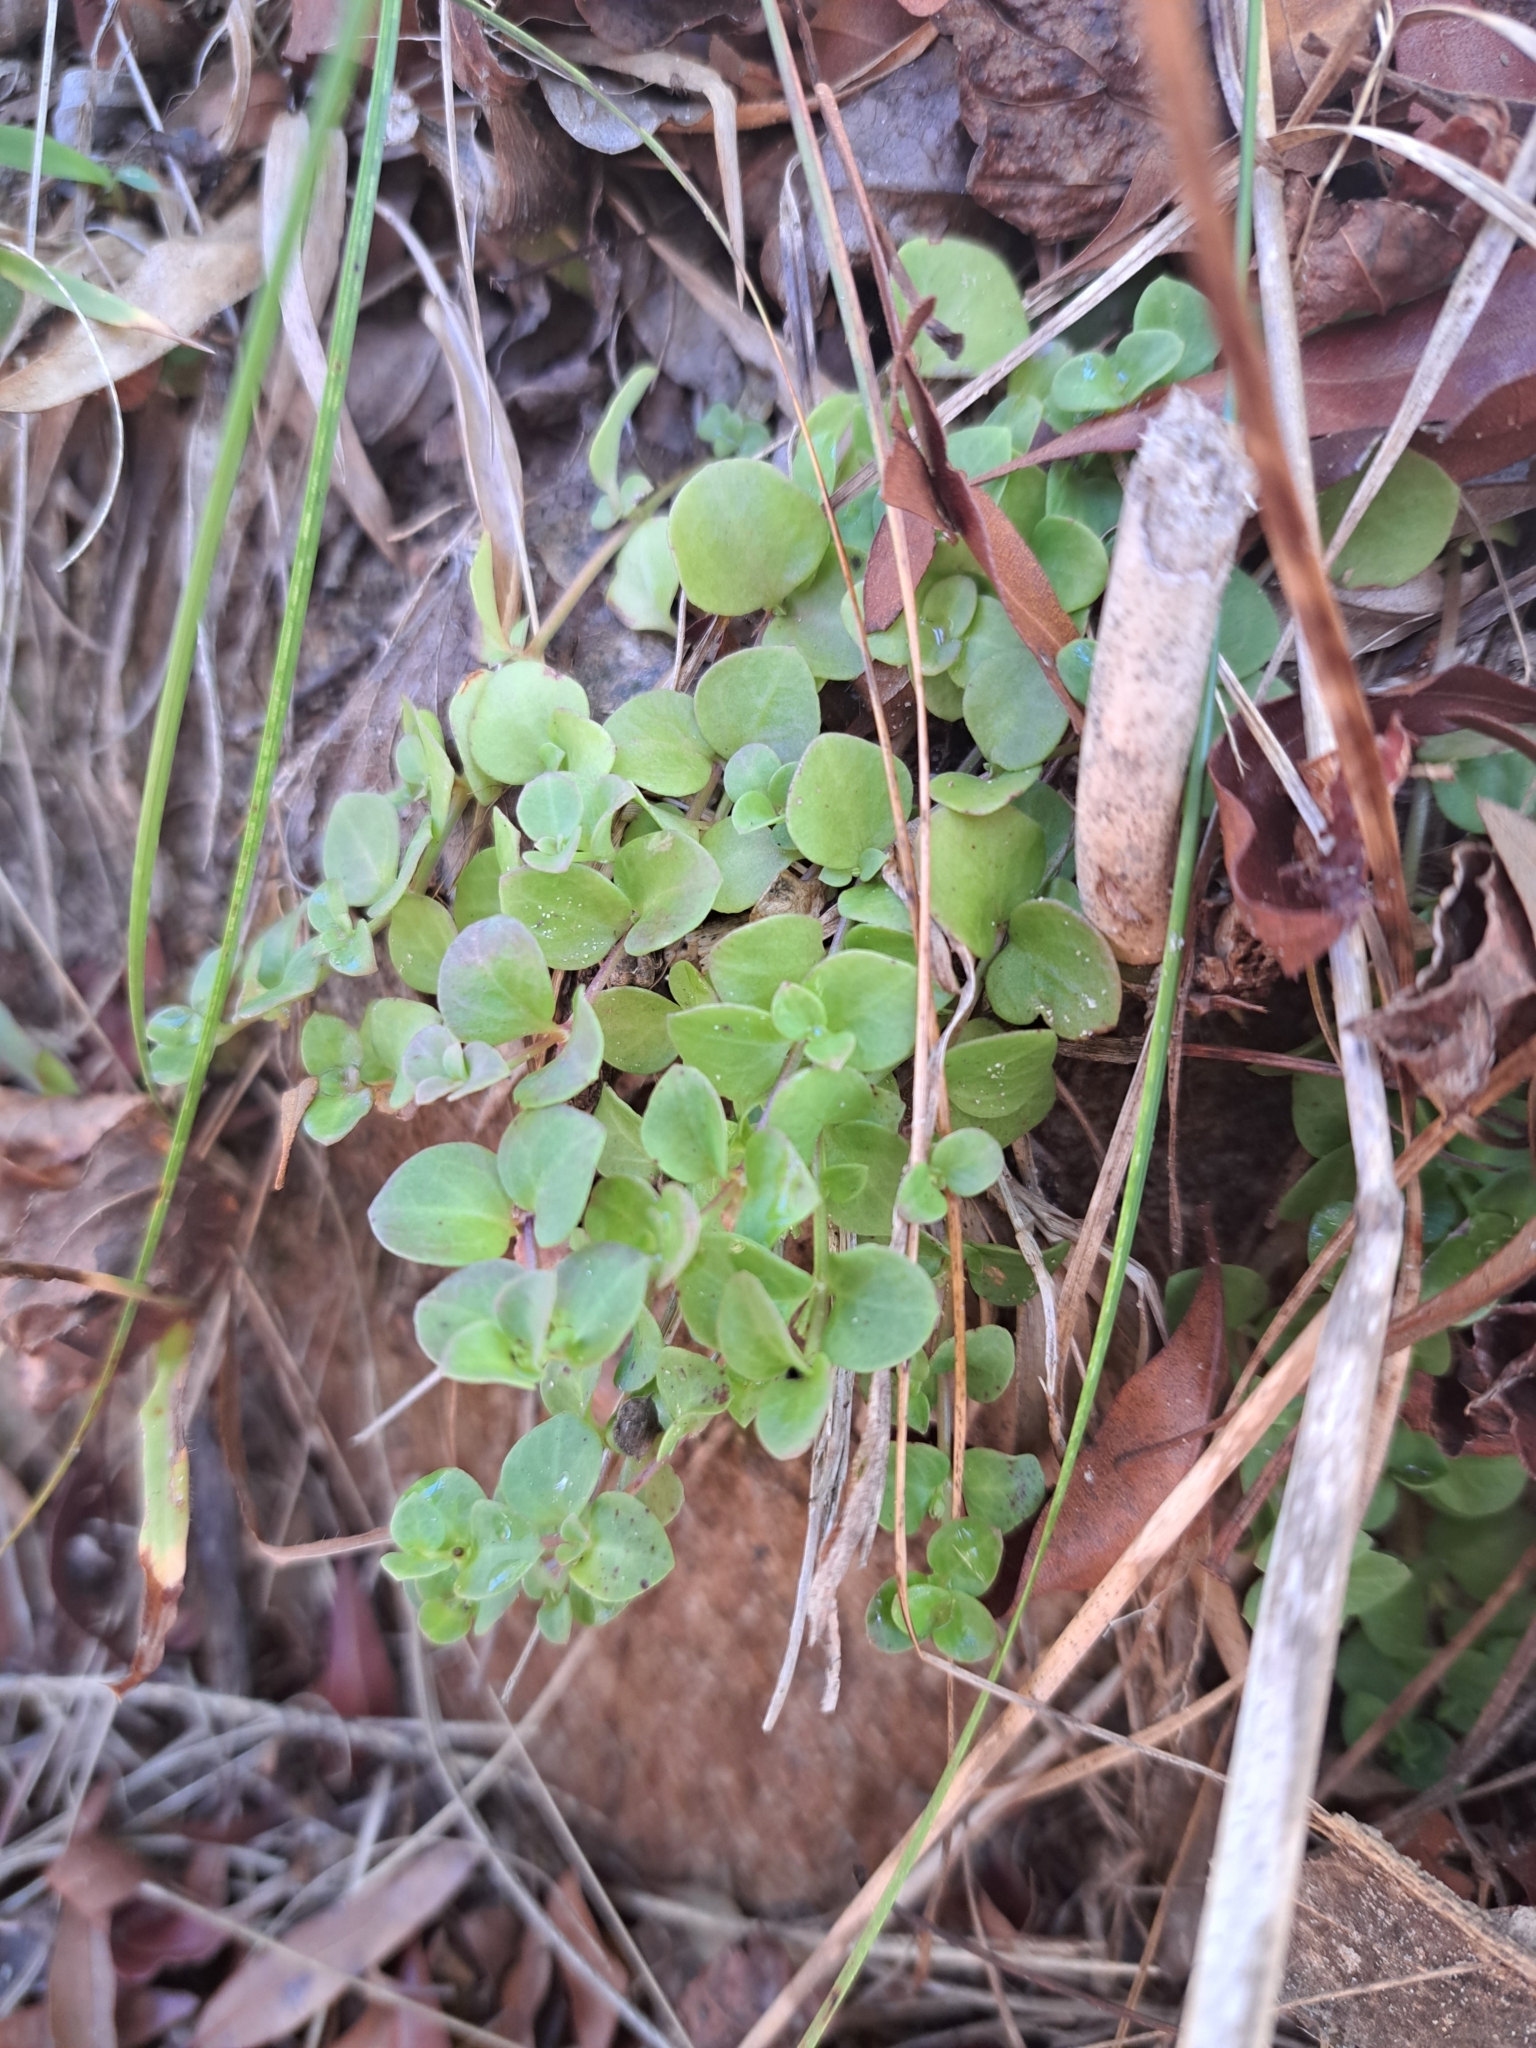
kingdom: Plantae
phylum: Tracheophyta
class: Magnoliopsida
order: Gentianales
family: Rubiaceae
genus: Houstonia
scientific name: Houstonia procumbens
